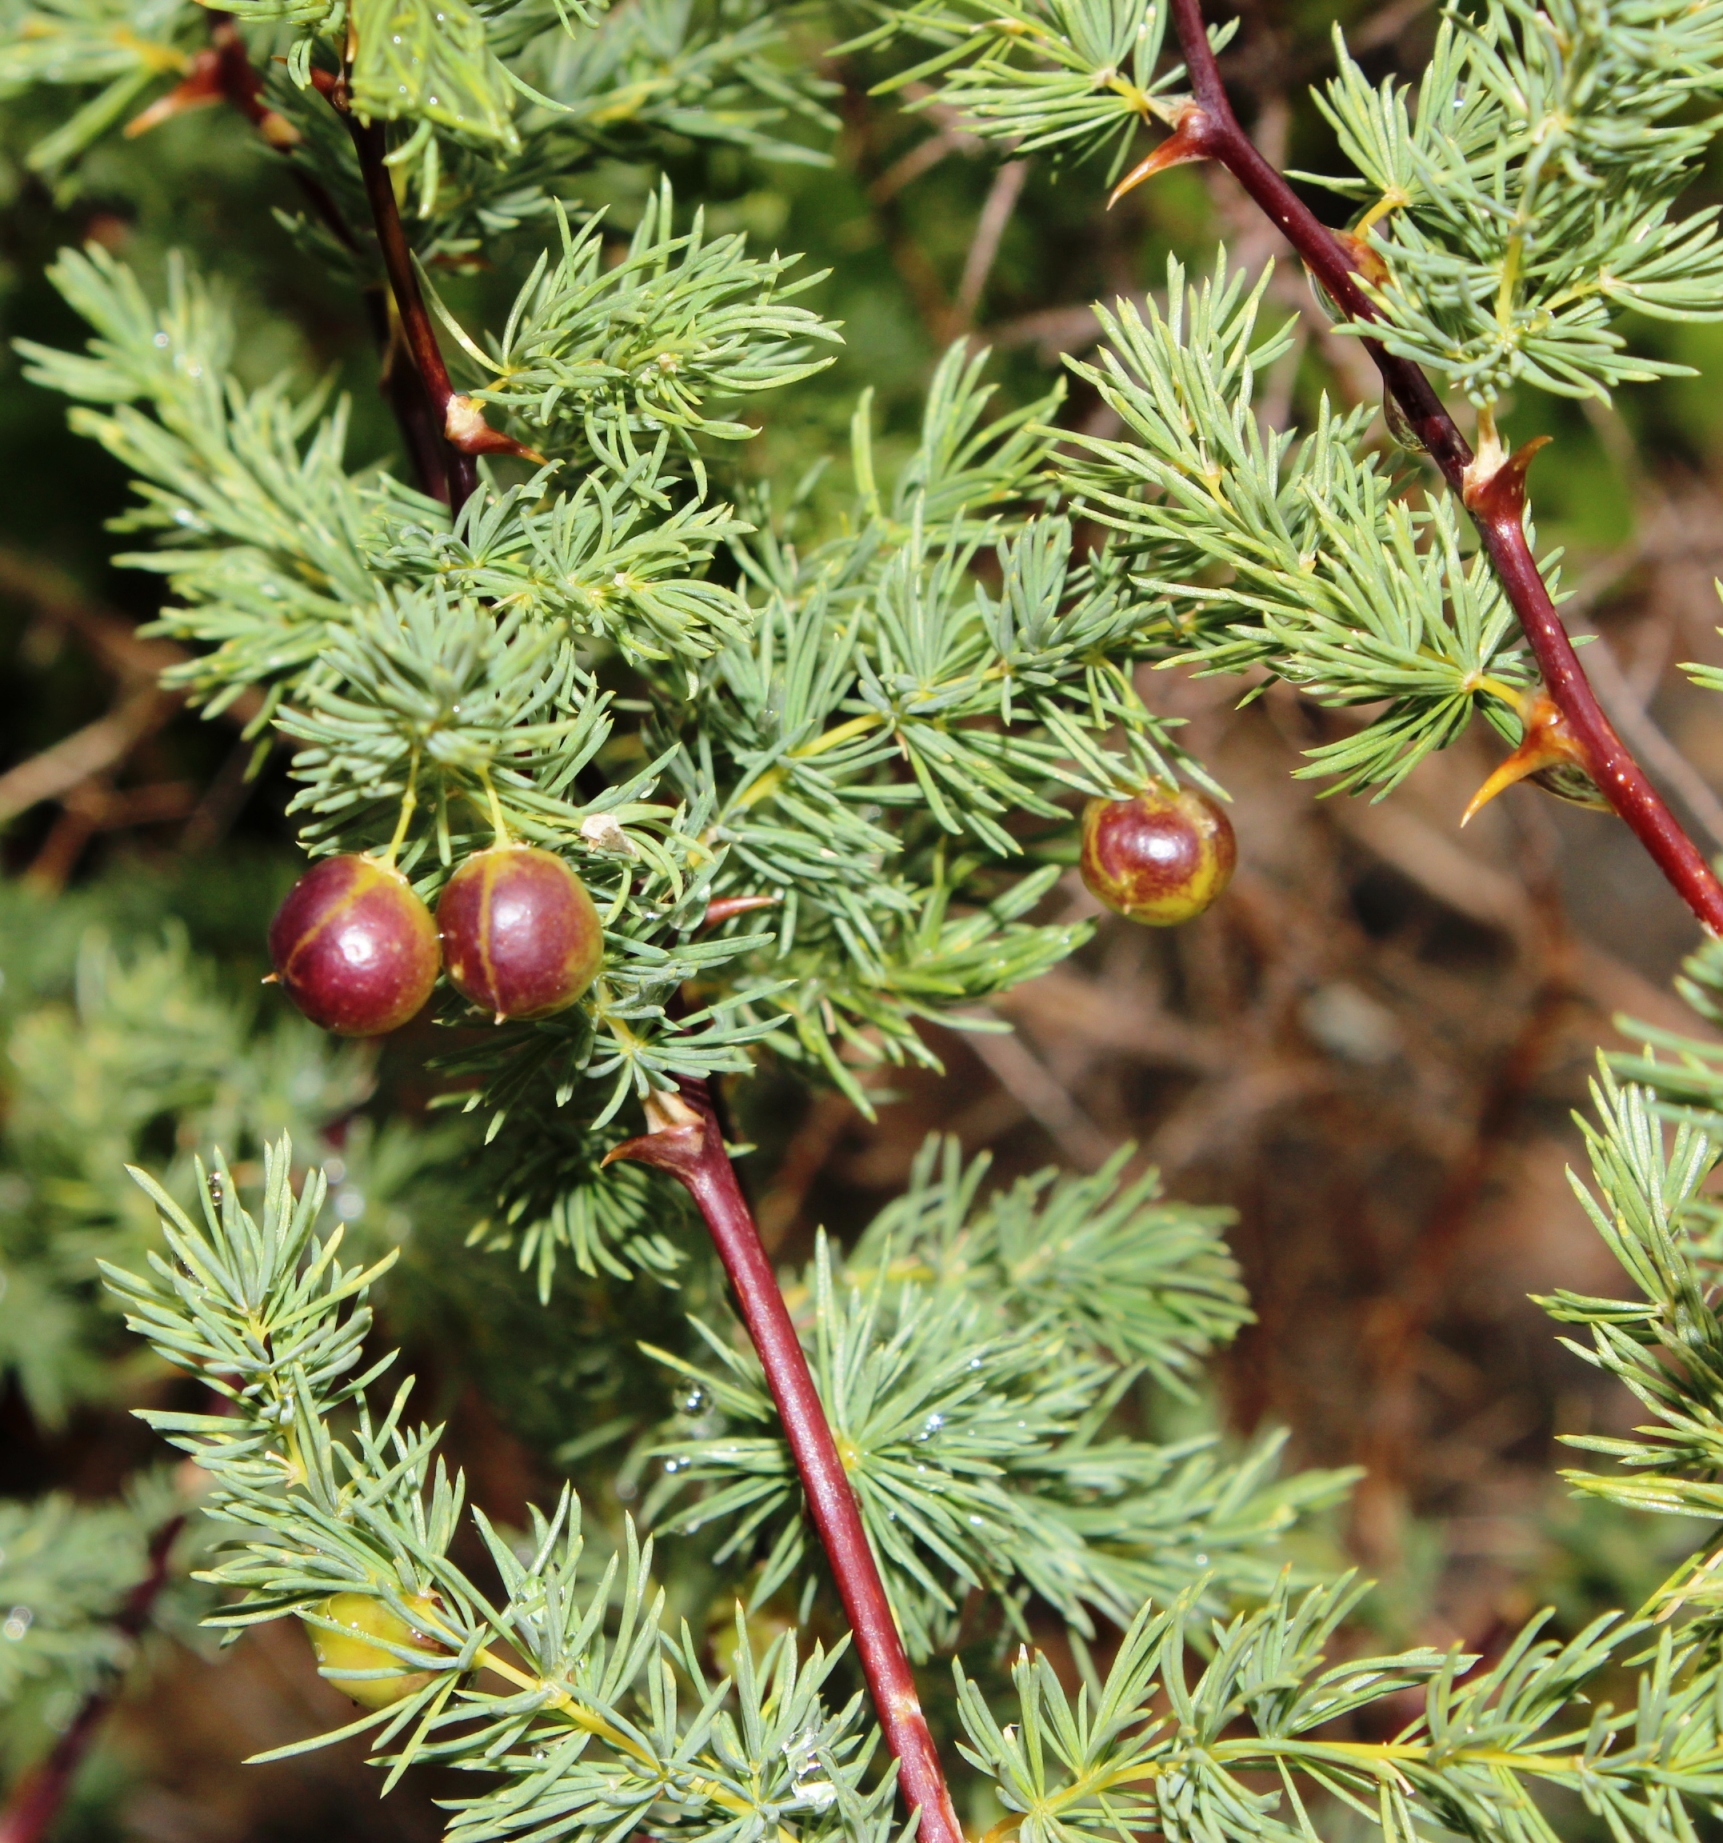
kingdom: Plantae
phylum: Tracheophyta
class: Liliopsida
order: Asparagales
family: Asparagaceae
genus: Asparagus
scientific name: Asparagus rubicundus
